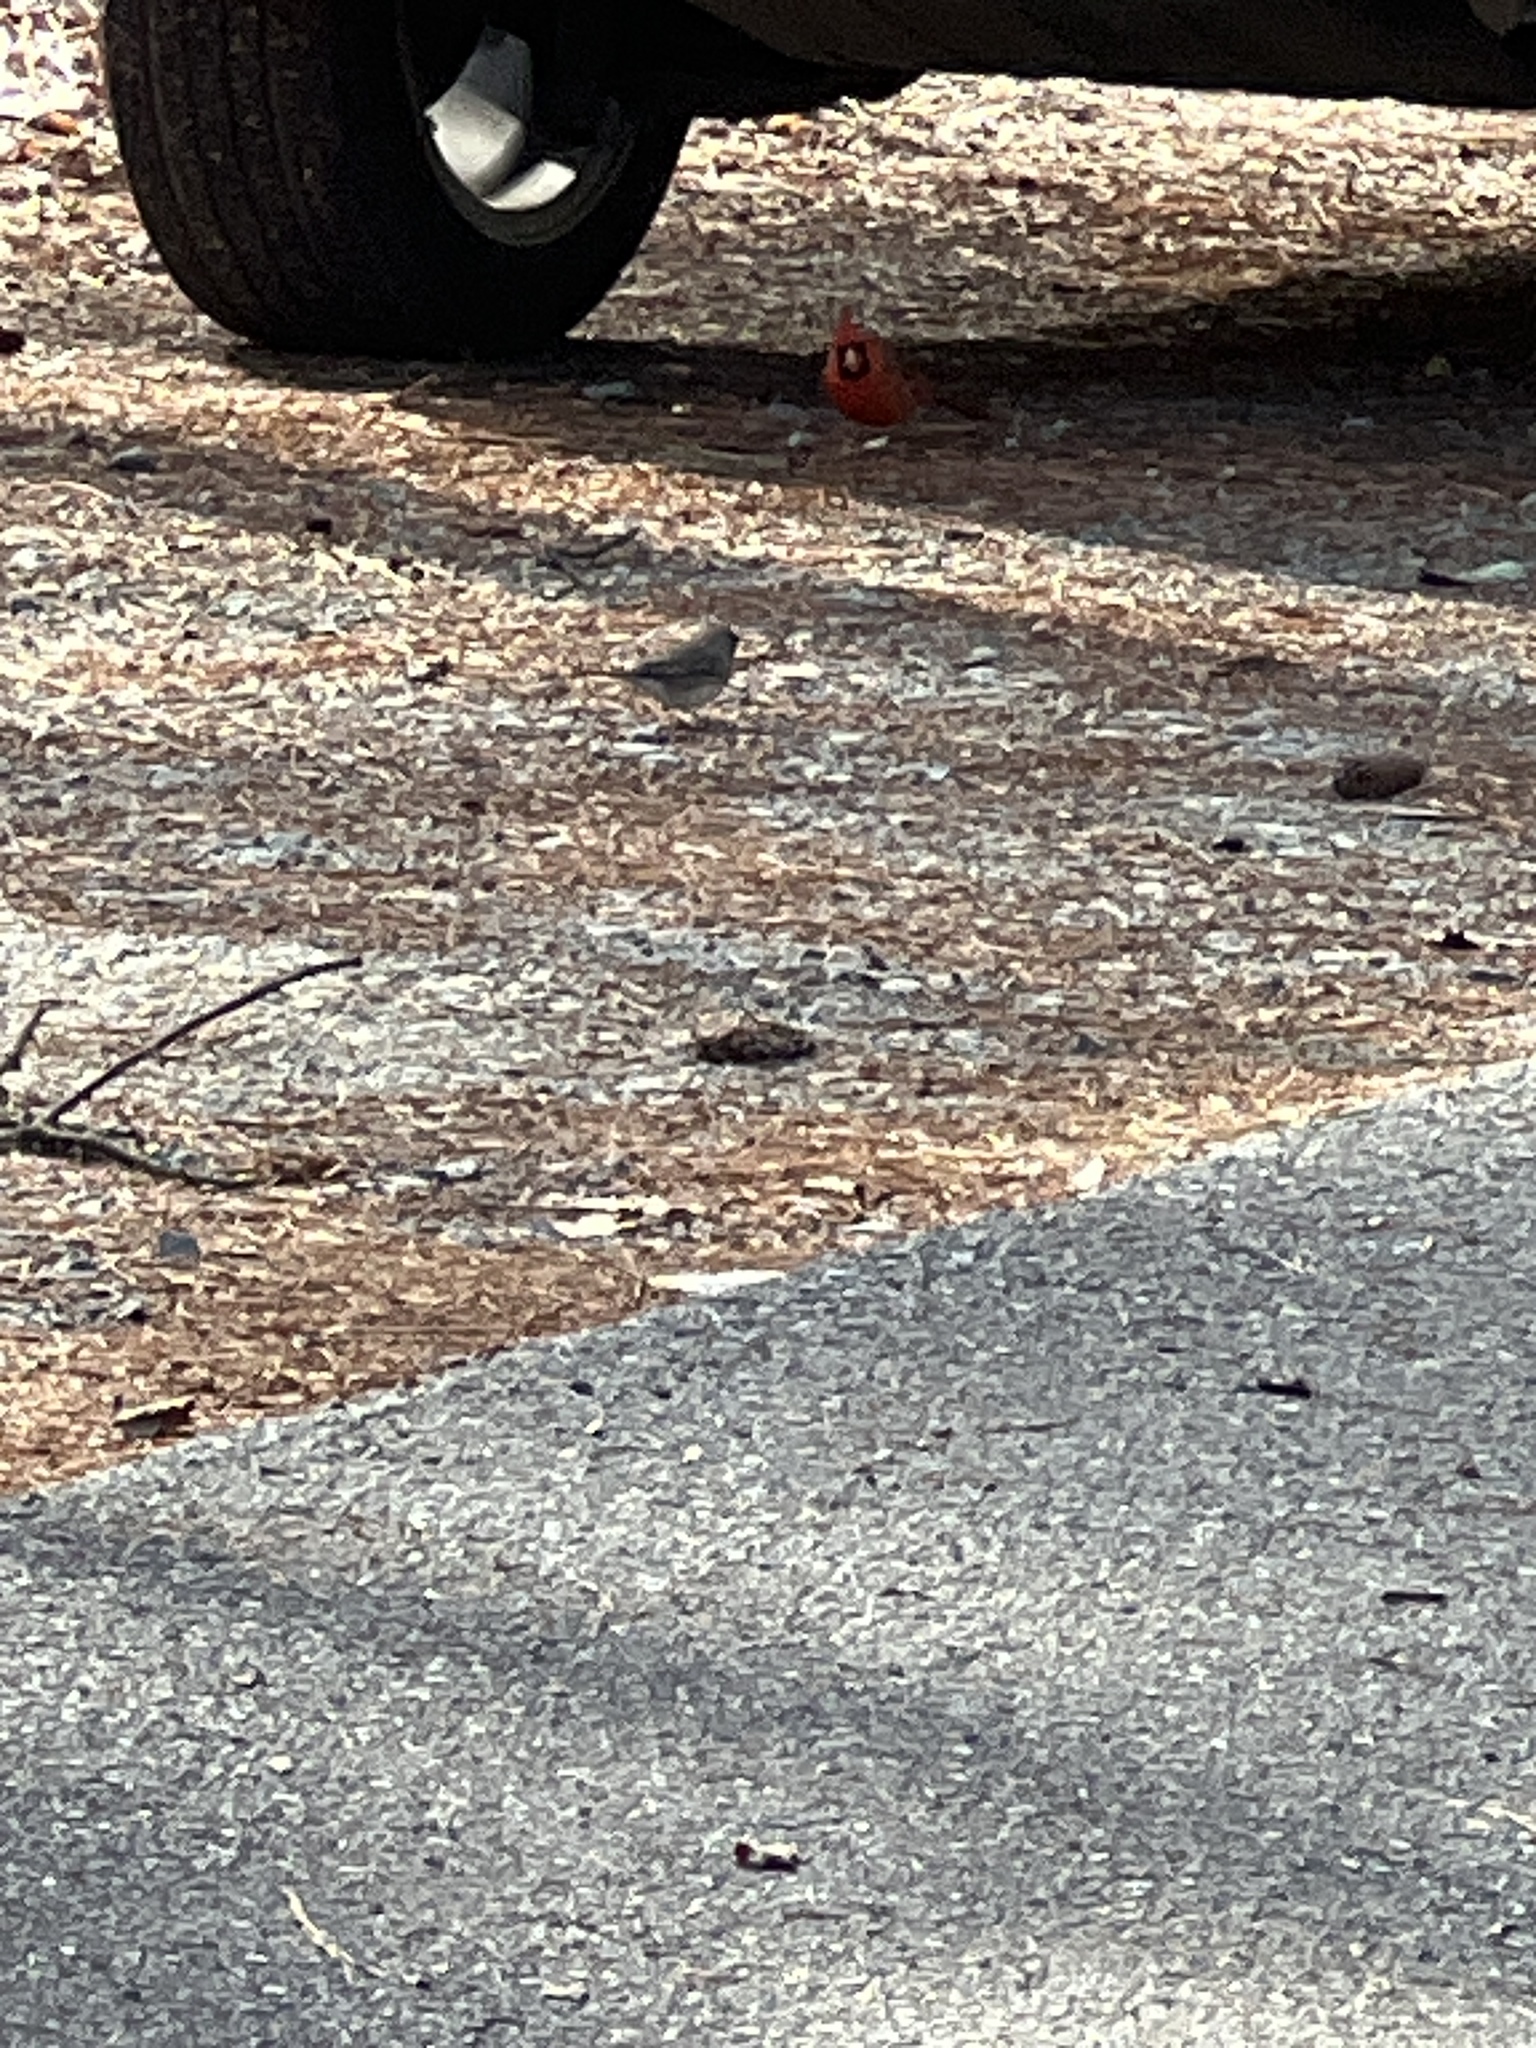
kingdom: Animalia
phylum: Chordata
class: Aves
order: Passeriformes
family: Passerellidae
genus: Junco
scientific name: Junco hyemalis
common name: Dark-eyed junco
